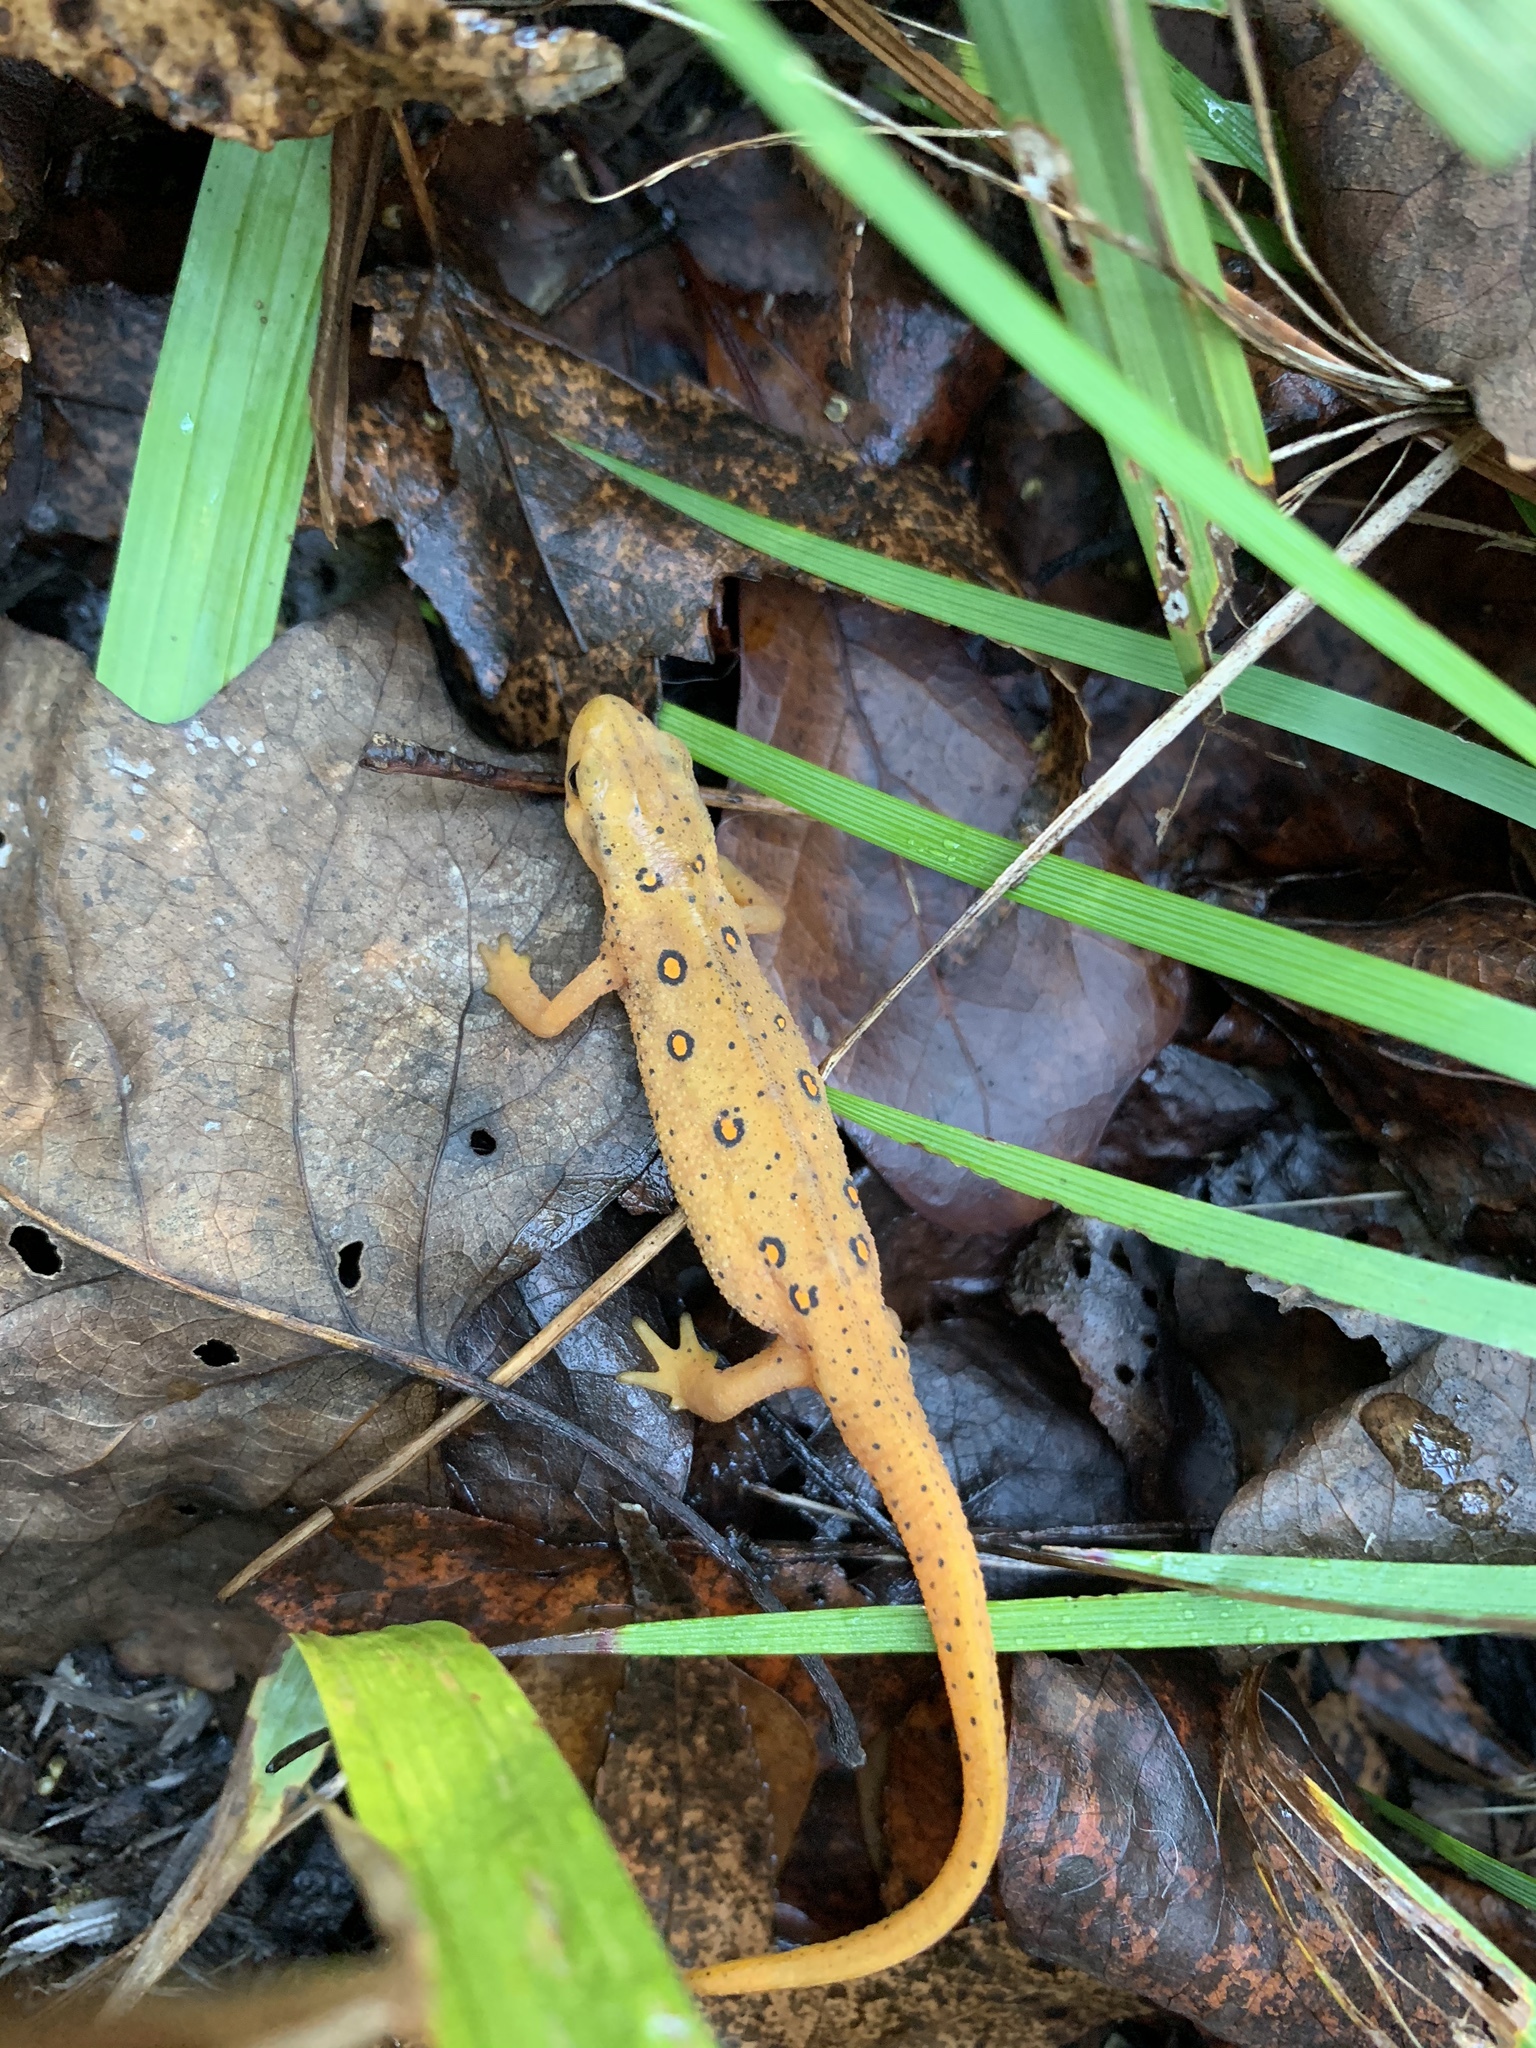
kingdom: Animalia
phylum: Chordata
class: Amphibia
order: Caudata
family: Salamandridae
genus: Notophthalmus
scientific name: Notophthalmus viridescens
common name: Eastern newt
